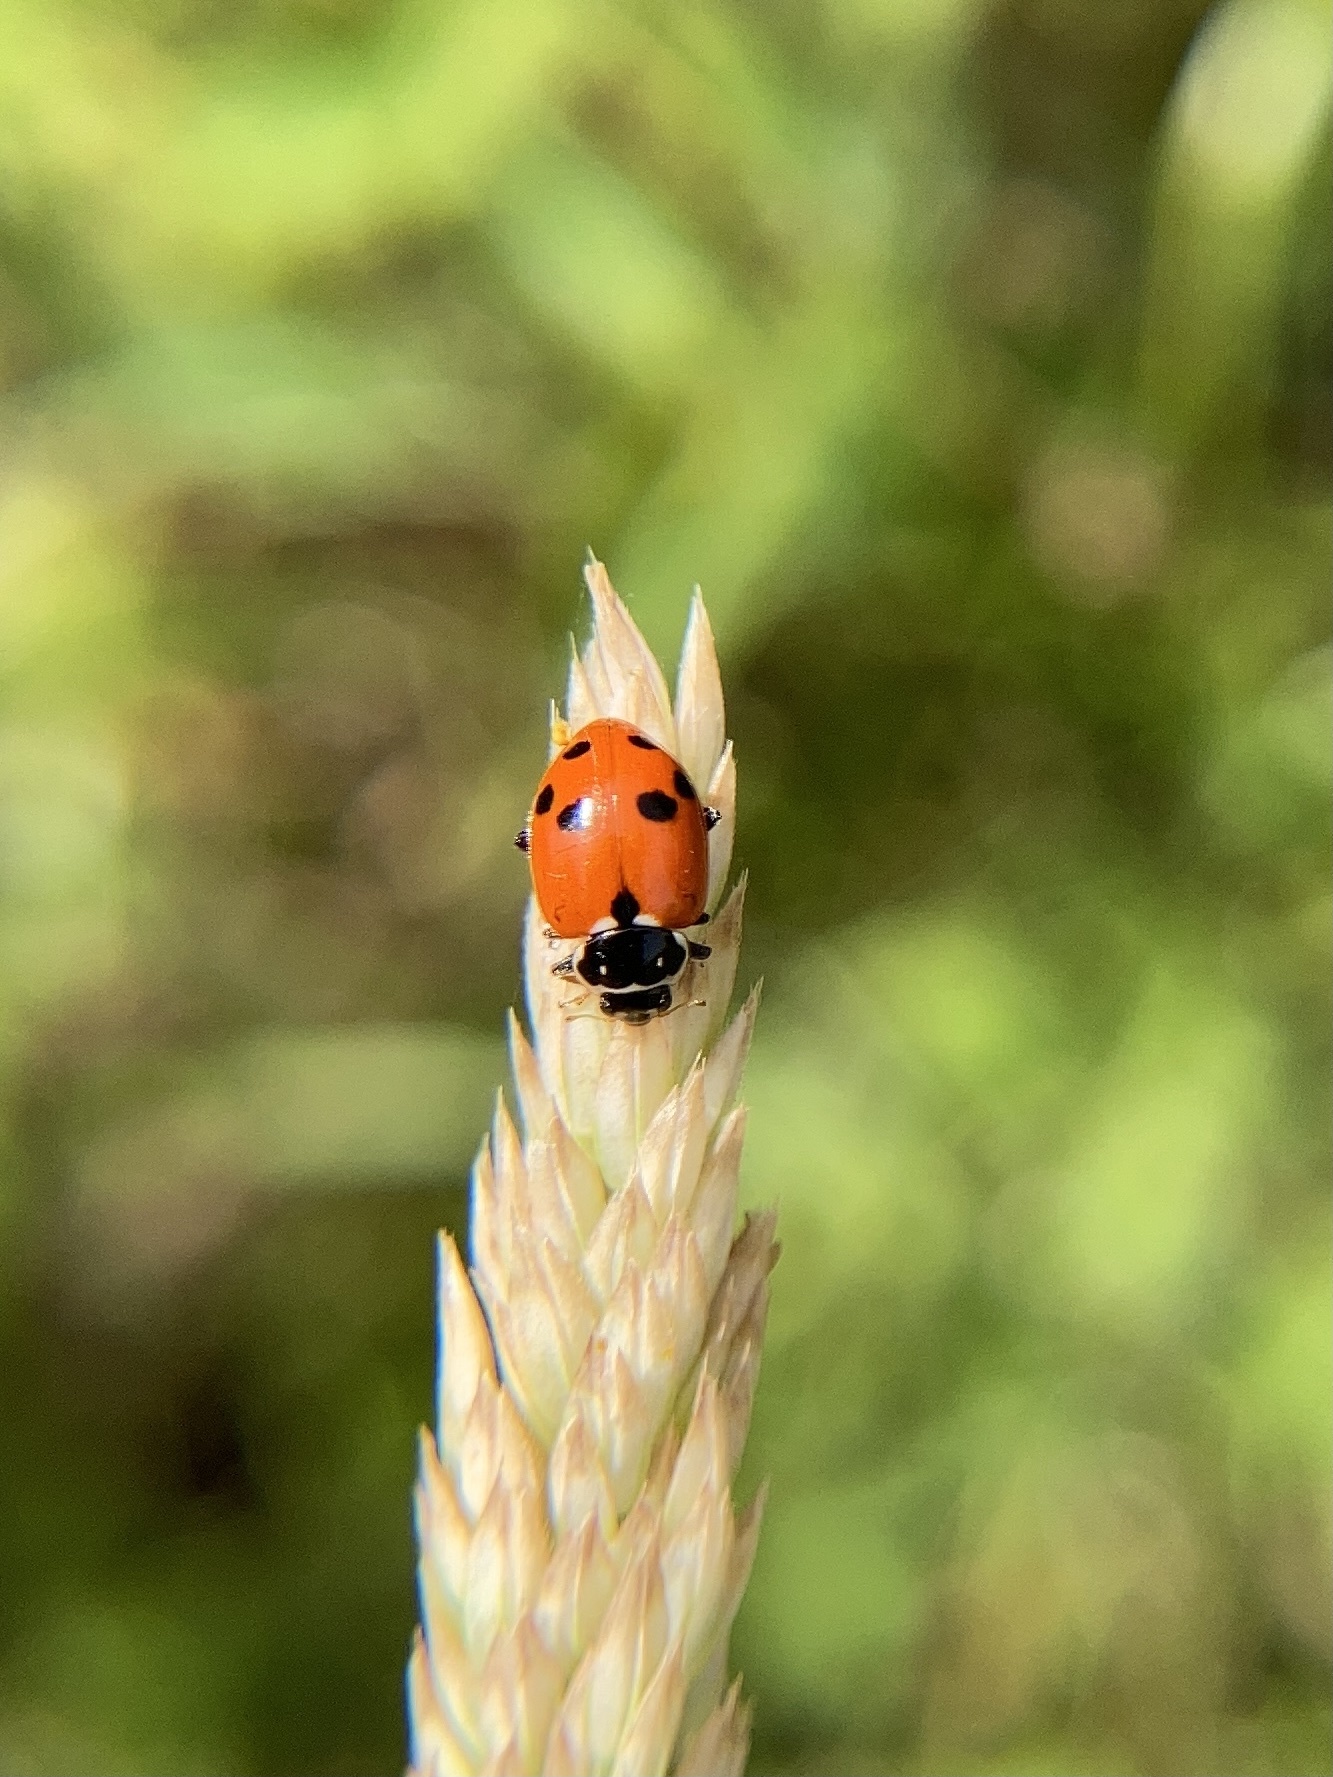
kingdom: Animalia
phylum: Arthropoda
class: Insecta
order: Coleoptera
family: Coccinellidae
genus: Hippodamia
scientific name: Hippodamia variegata
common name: Ladybird beetle
